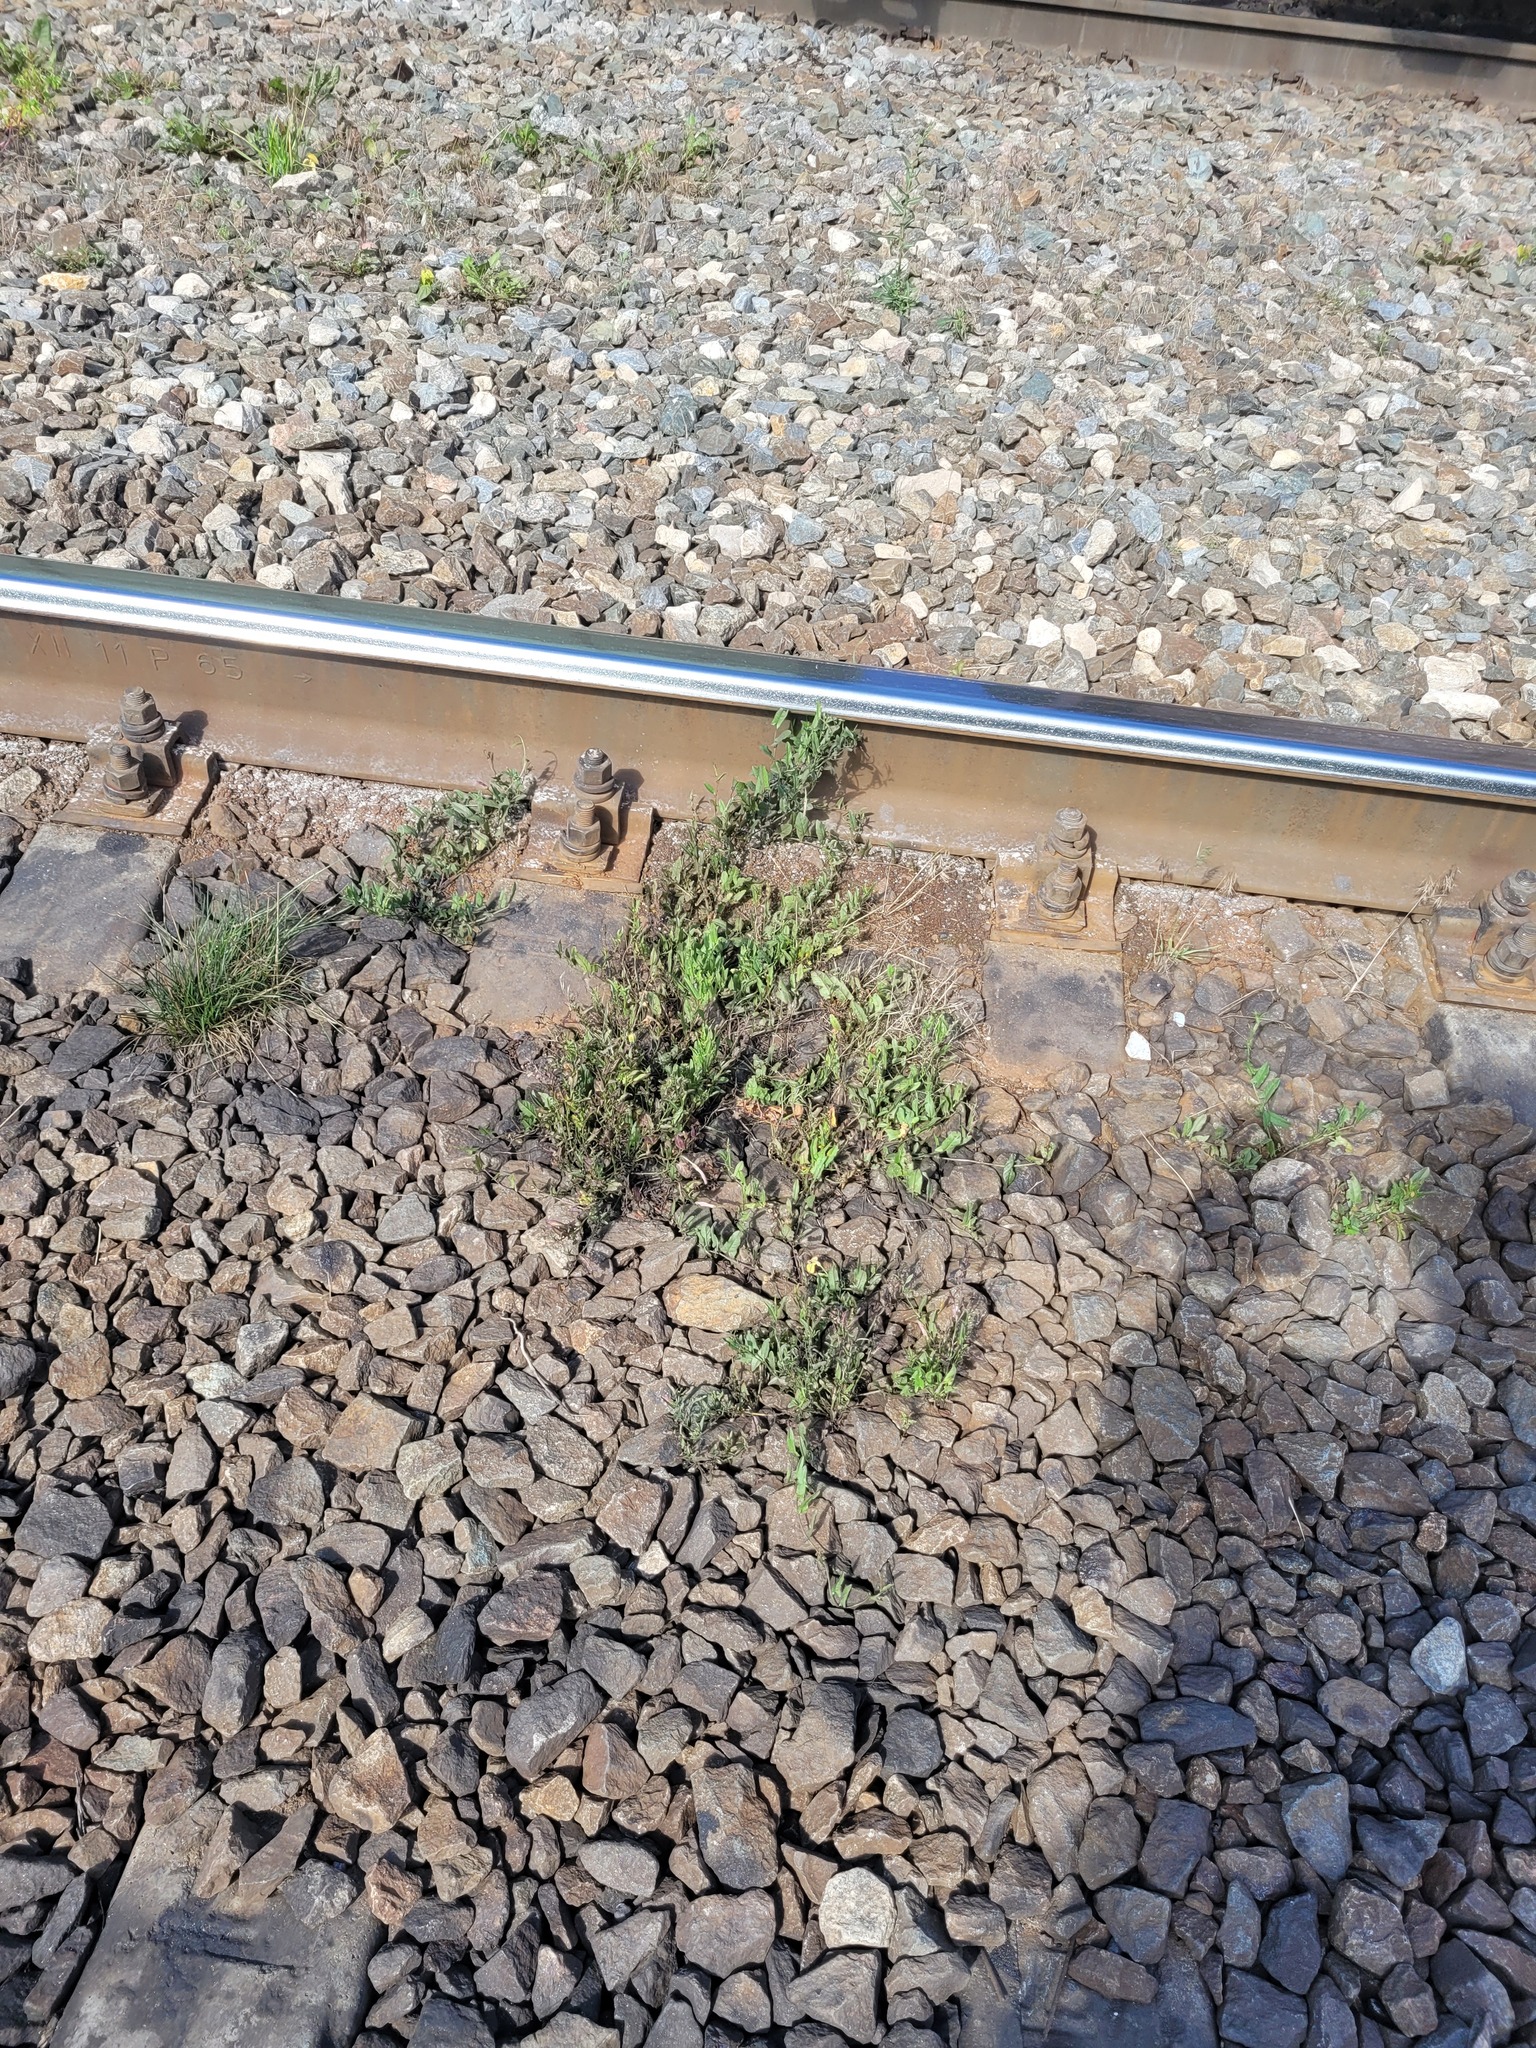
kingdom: Plantae
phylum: Tracheophyta
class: Magnoliopsida
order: Solanales
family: Convolvulaceae
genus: Convolvulus
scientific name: Convolvulus arvensis
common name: Field bindweed
